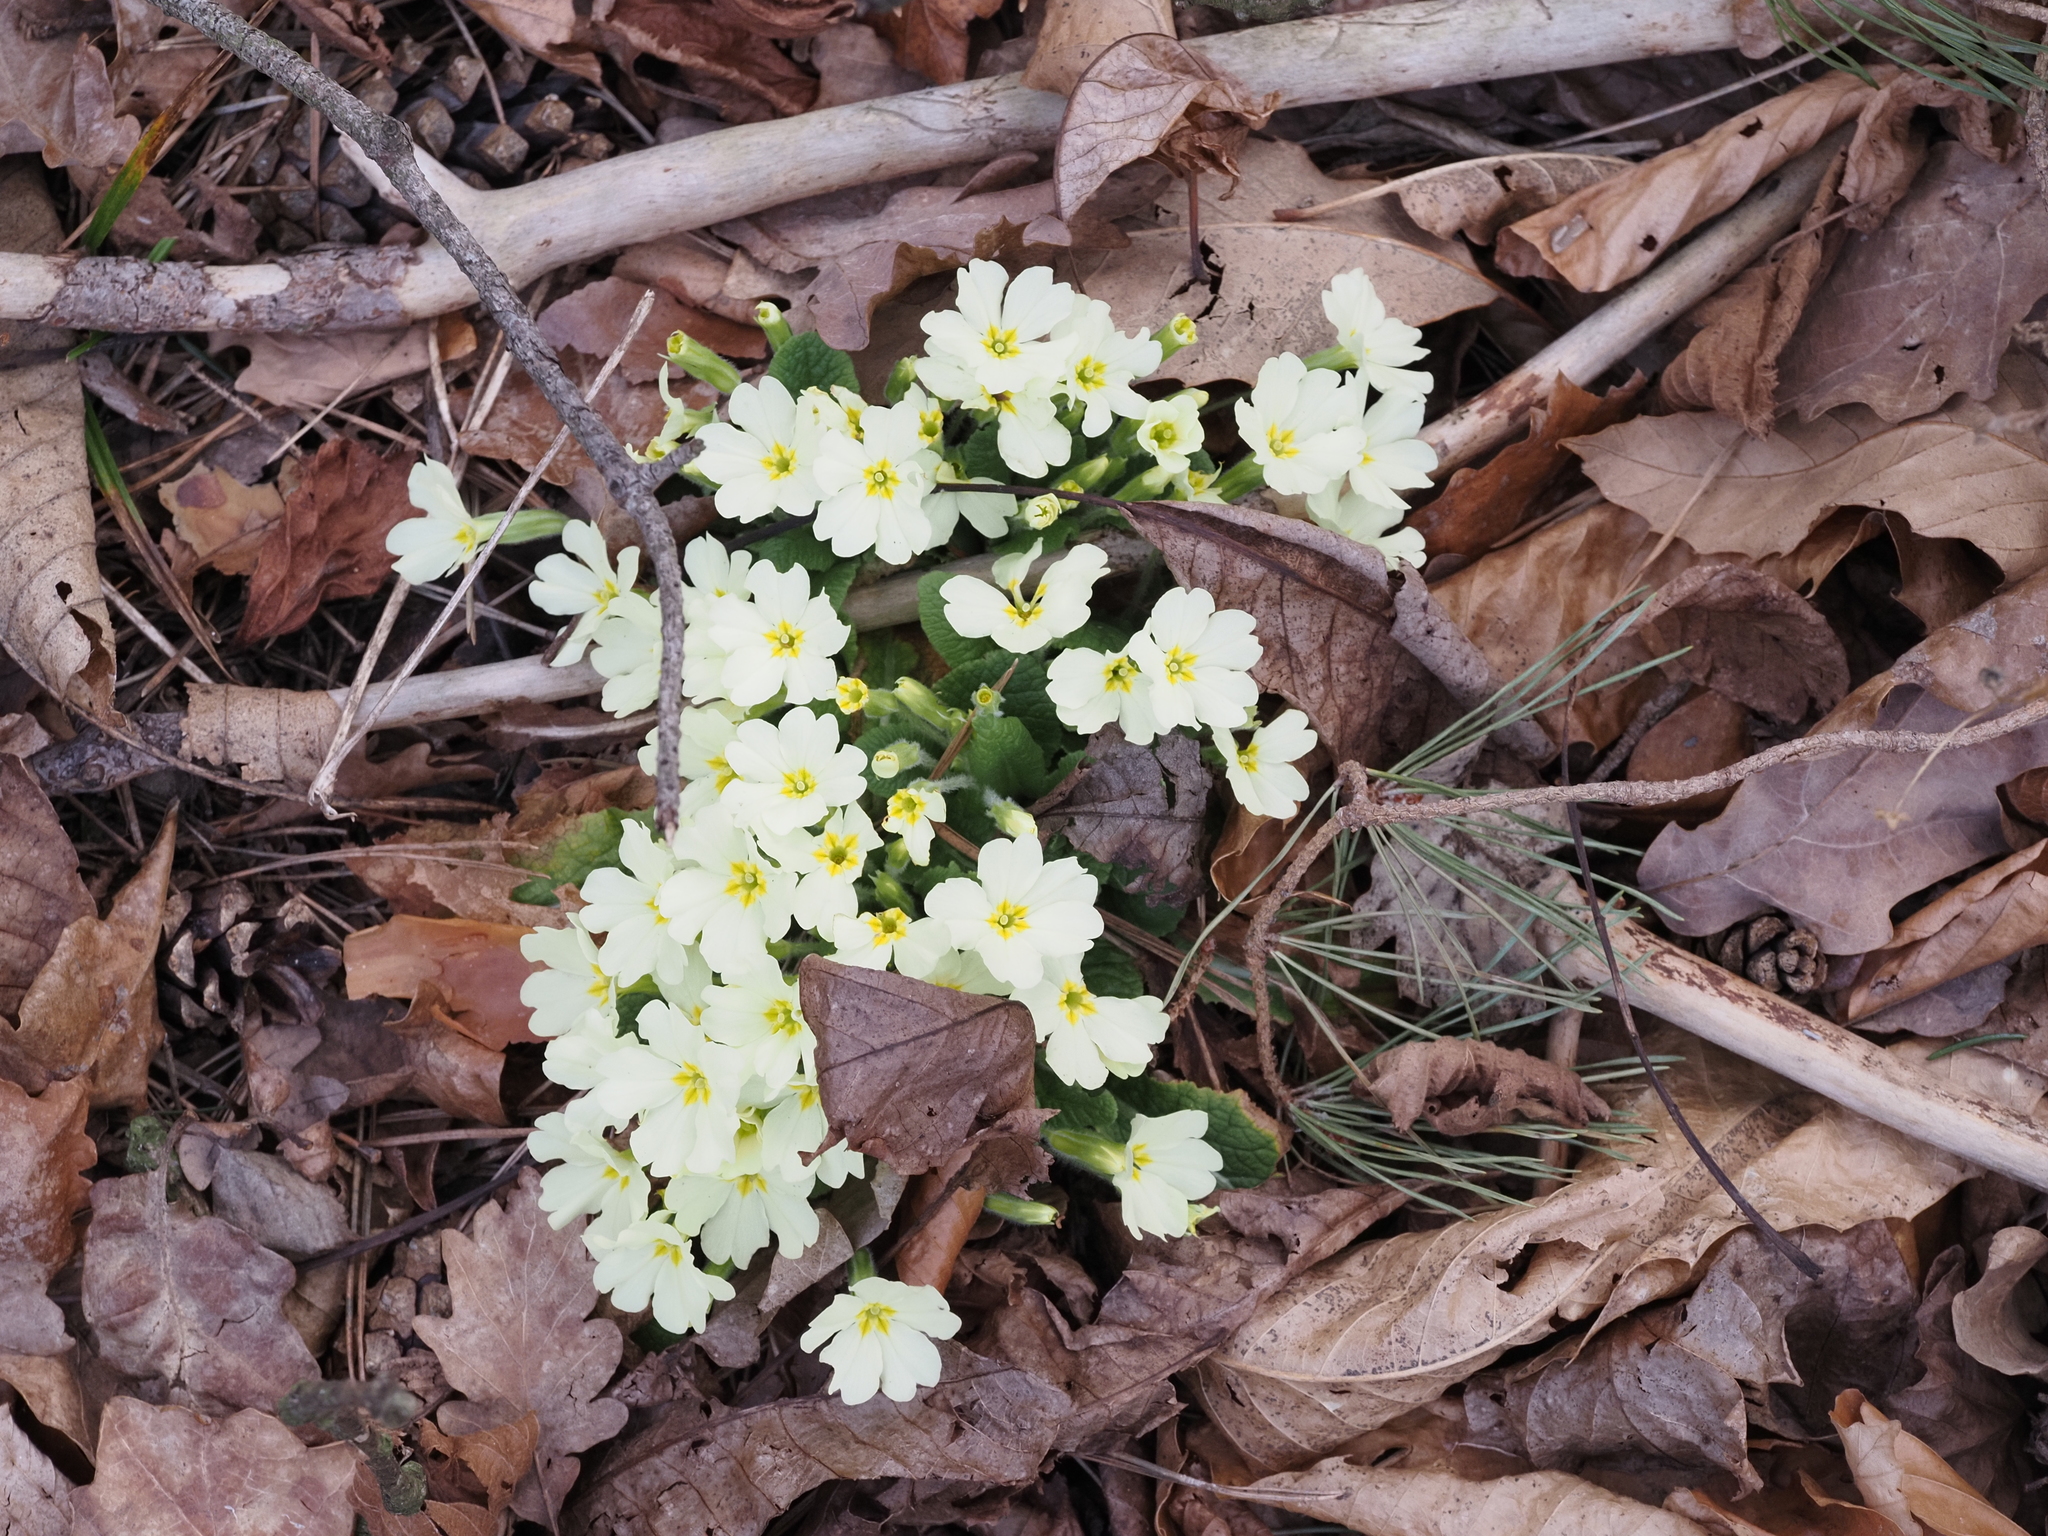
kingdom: Plantae
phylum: Tracheophyta
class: Magnoliopsida
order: Ericales
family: Primulaceae
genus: Primula
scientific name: Primula vulgaris
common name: Primrose
